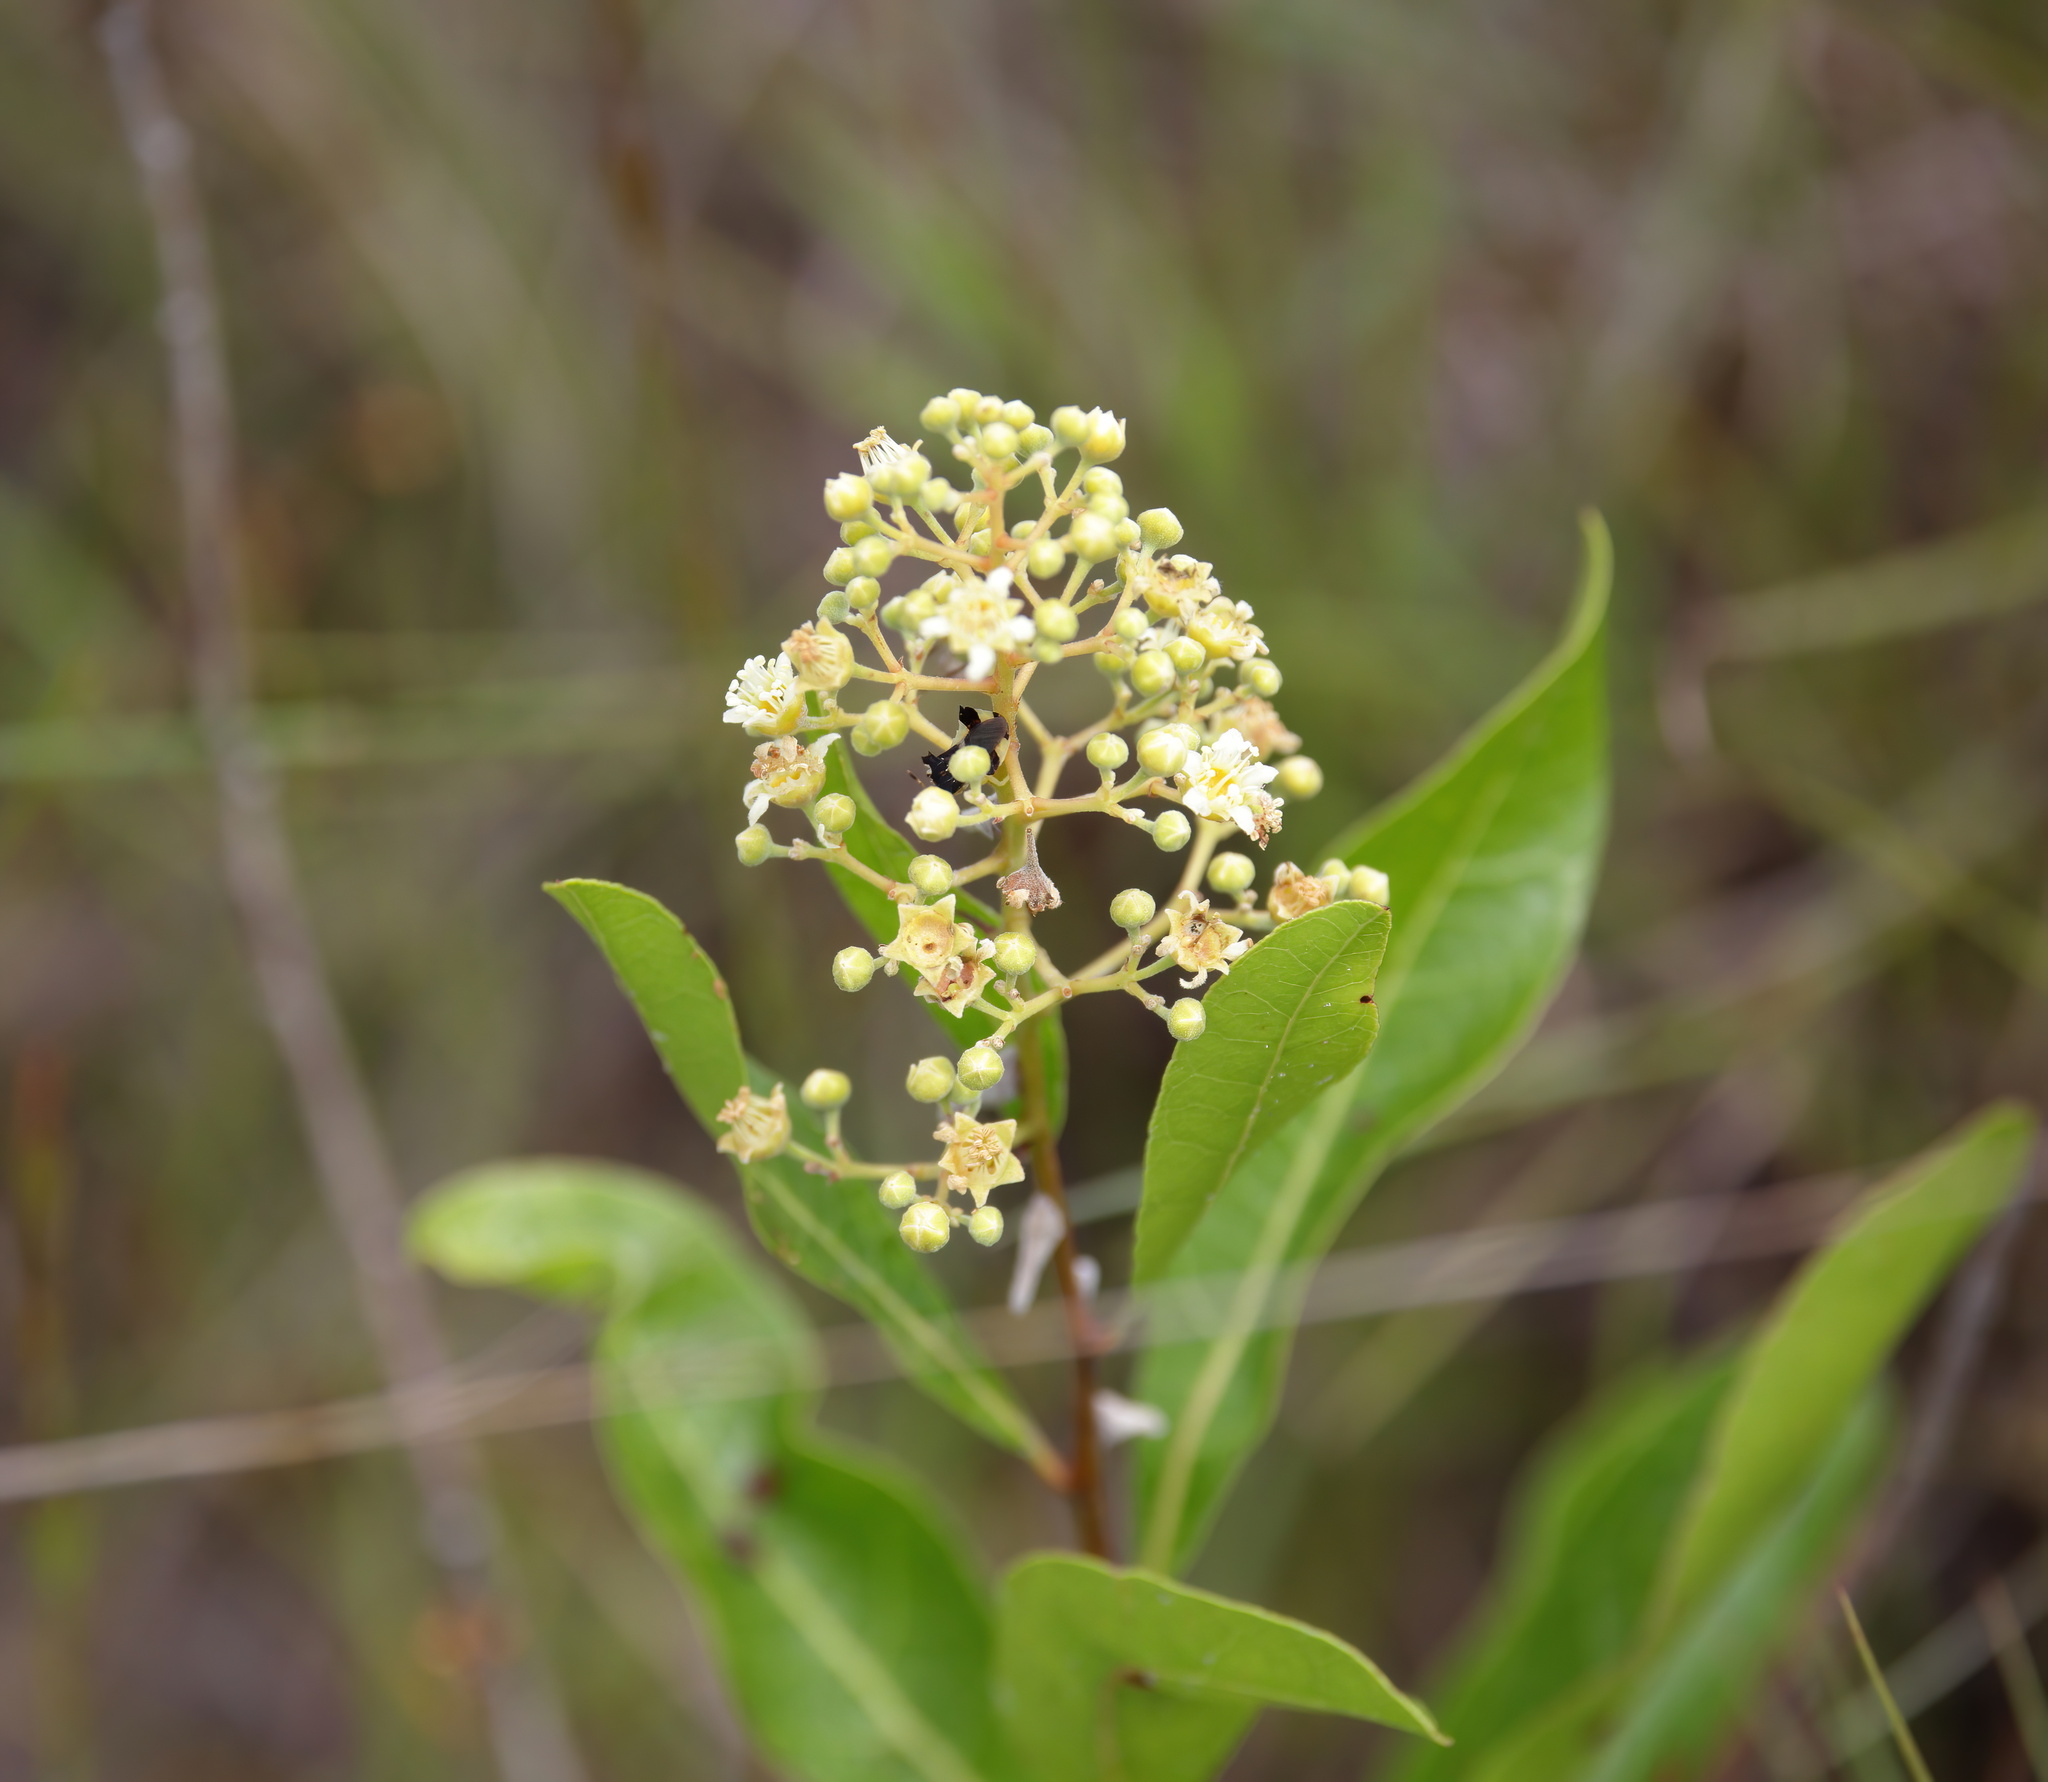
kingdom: Plantae
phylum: Tracheophyta
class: Magnoliopsida
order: Malpighiales
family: Chrysobalanaceae
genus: Geobalanus
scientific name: Geobalanus oblongifolius
